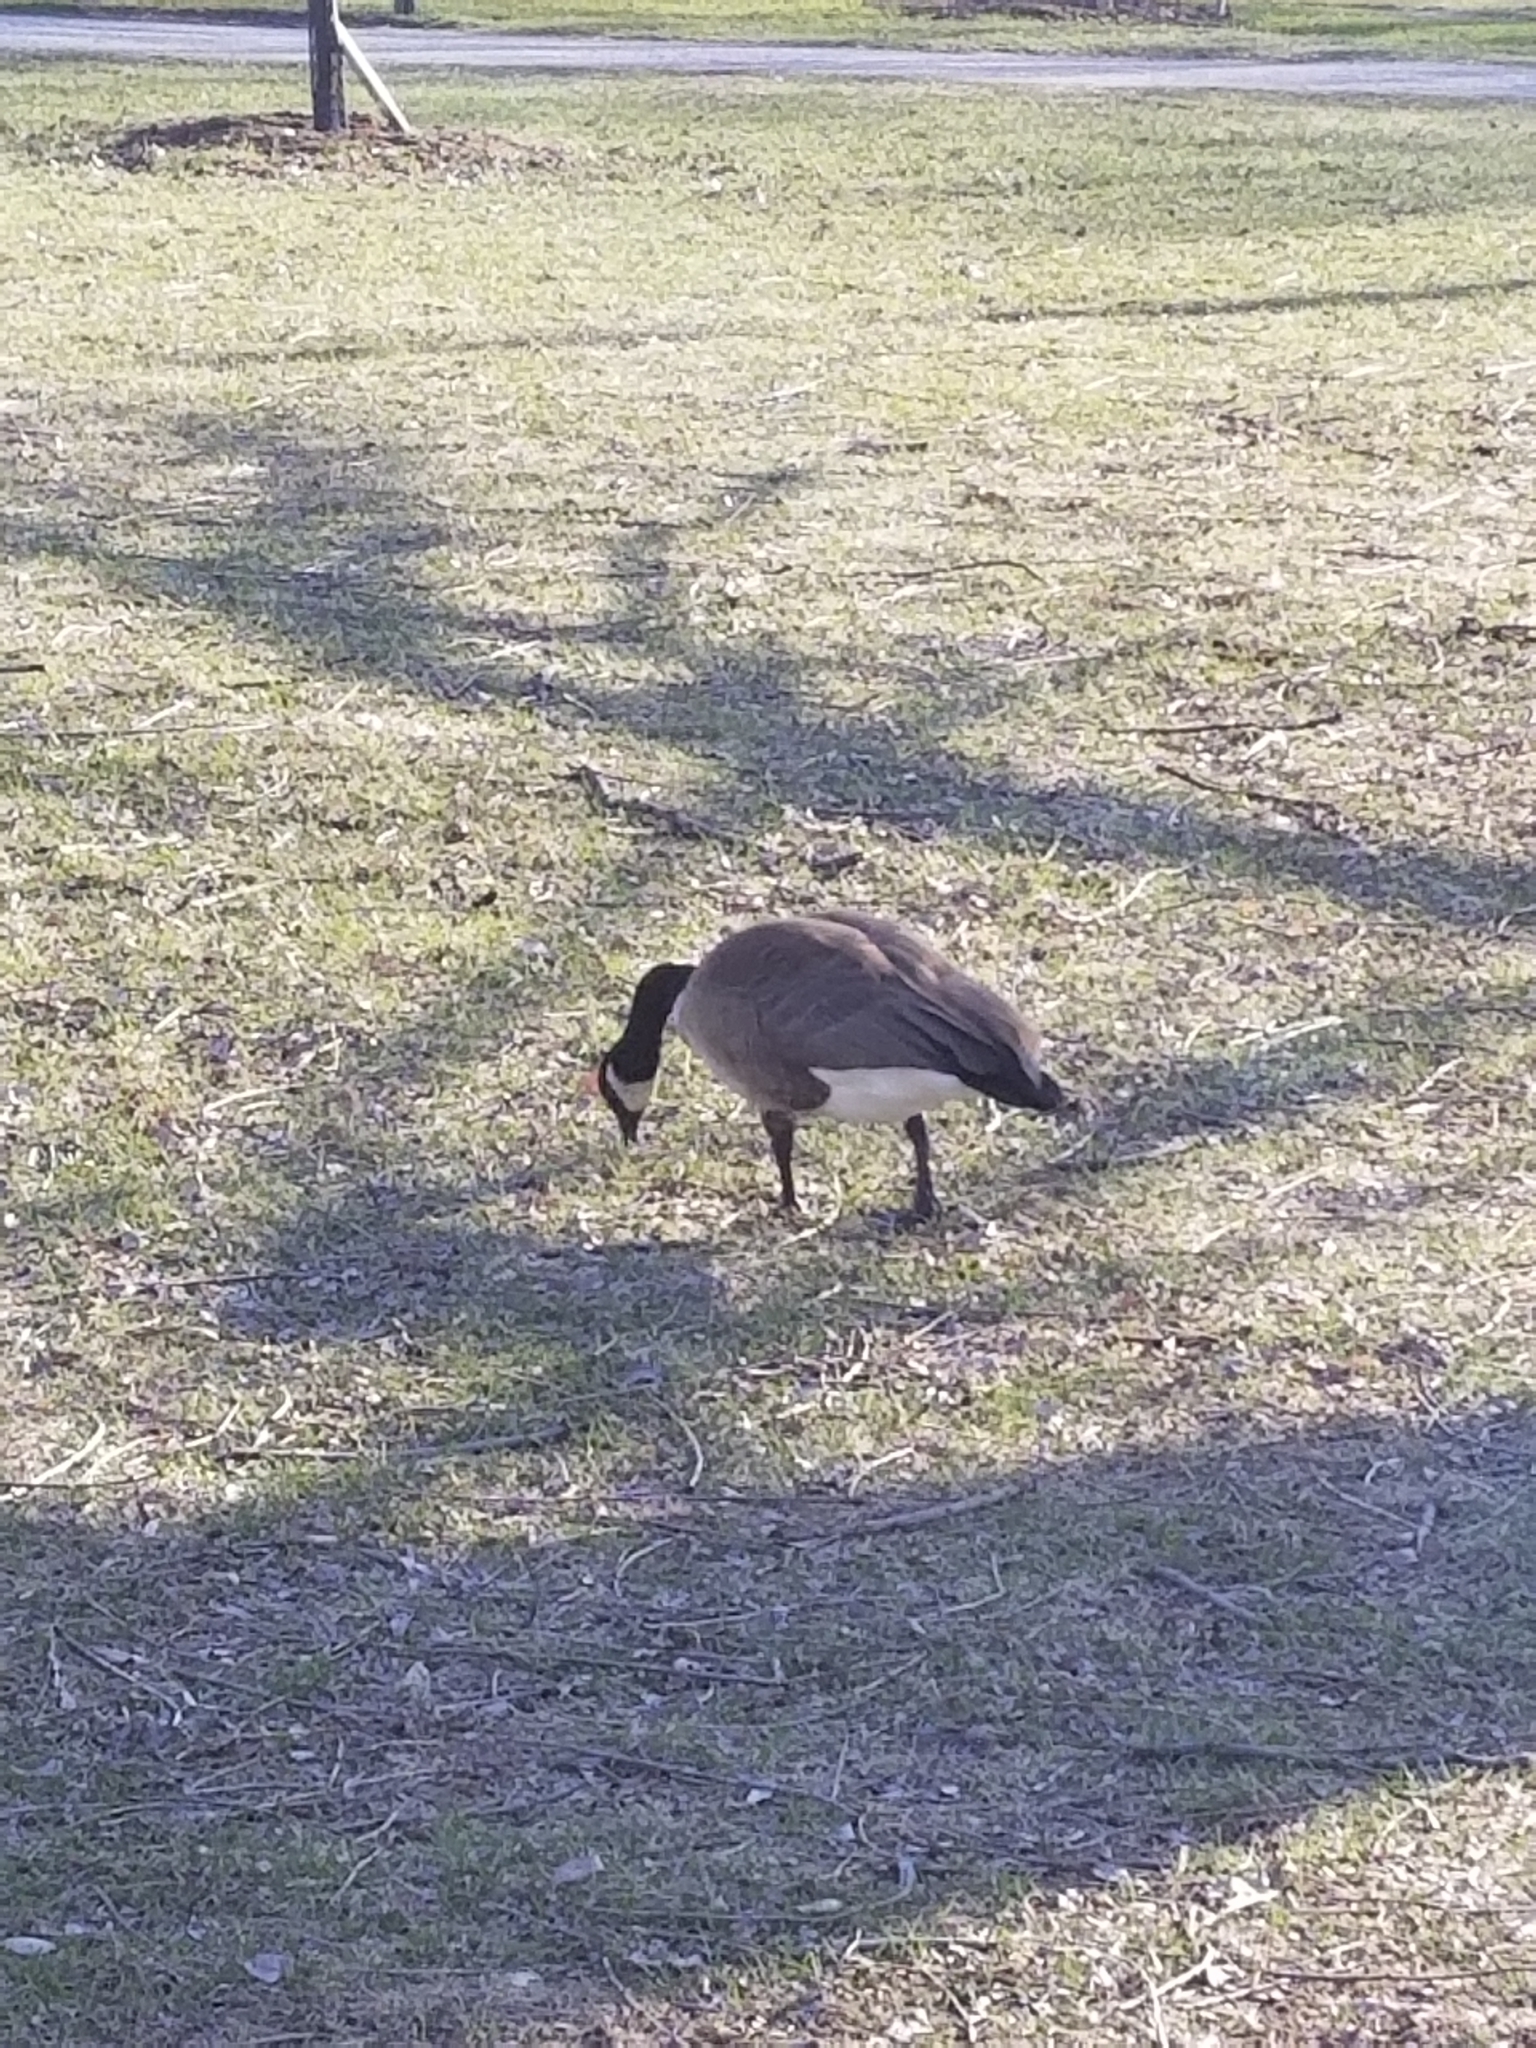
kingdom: Animalia
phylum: Chordata
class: Aves
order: Anseriformes
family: Anatidae
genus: Branta
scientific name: Branta canadensis
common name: Canada goose
